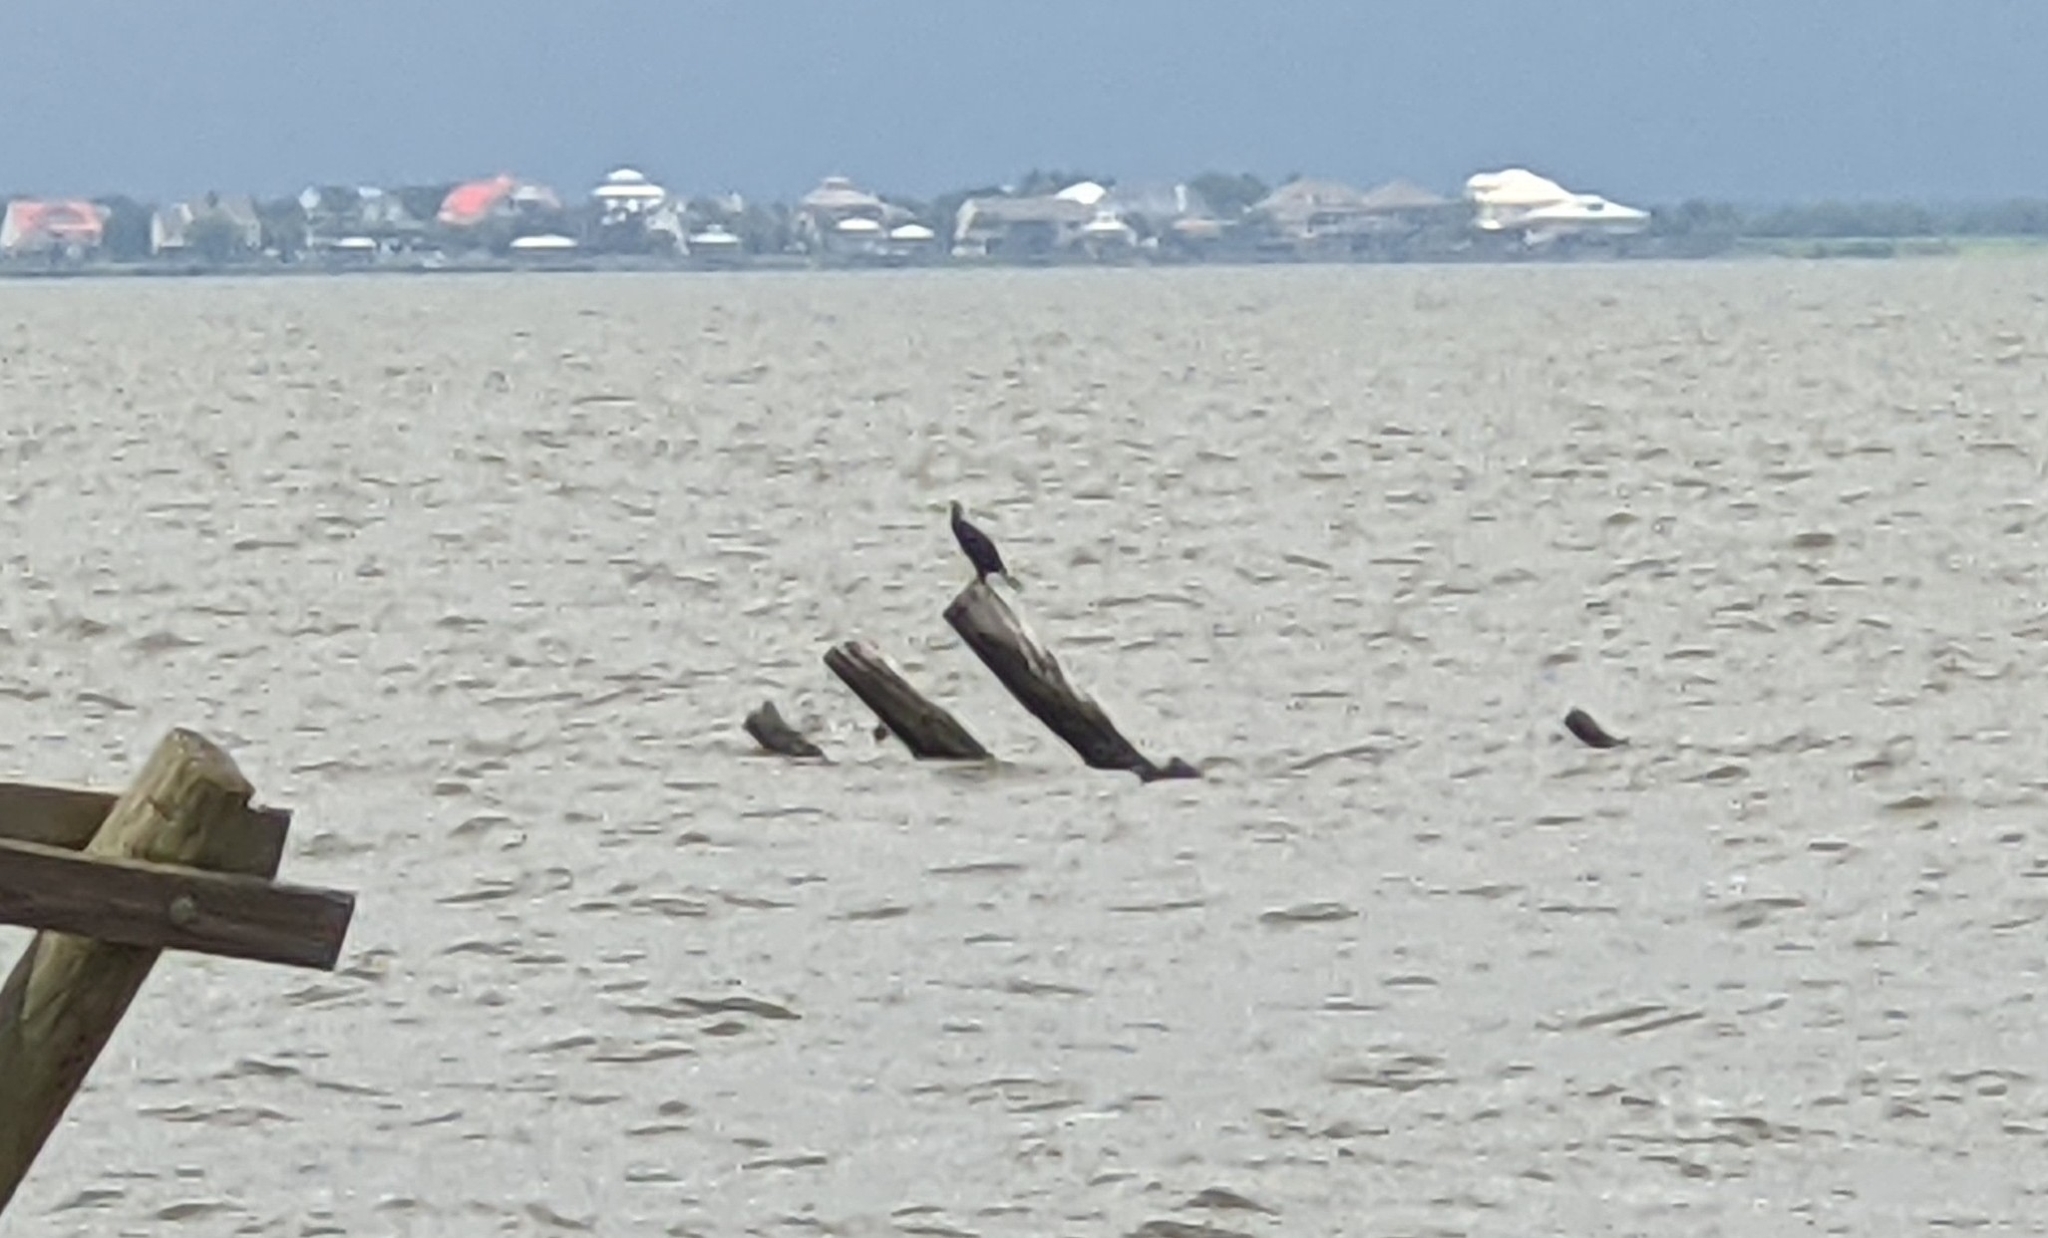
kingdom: Animalia
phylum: Chordata
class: Aves
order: Suliformes
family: Phalacrocoracidae
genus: Phalacrocorax
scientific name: Phalacrocorax auritus
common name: Double-crested cormorant
